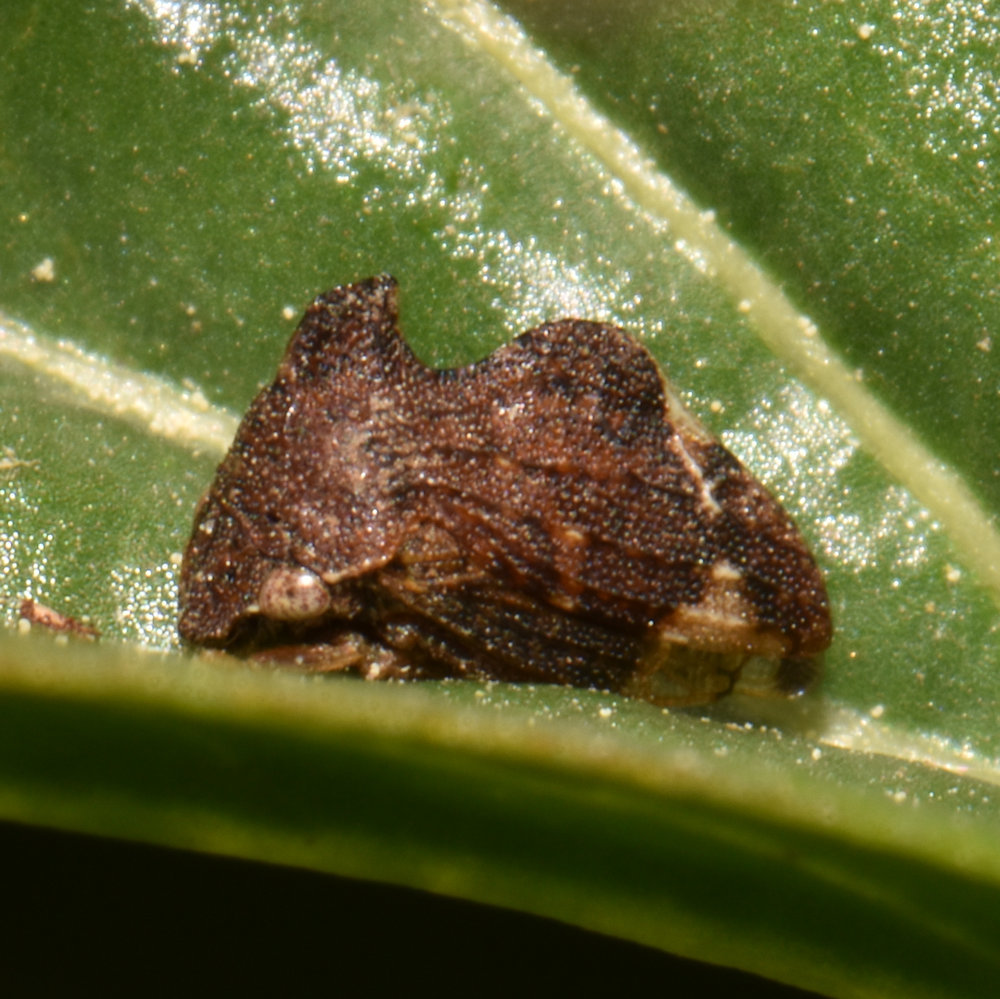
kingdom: Animalia
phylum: Arthropoda
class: Insecta
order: Hemiptera
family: Membracidae
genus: Entylia
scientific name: Entylia carinata
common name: Keeled treehopper
